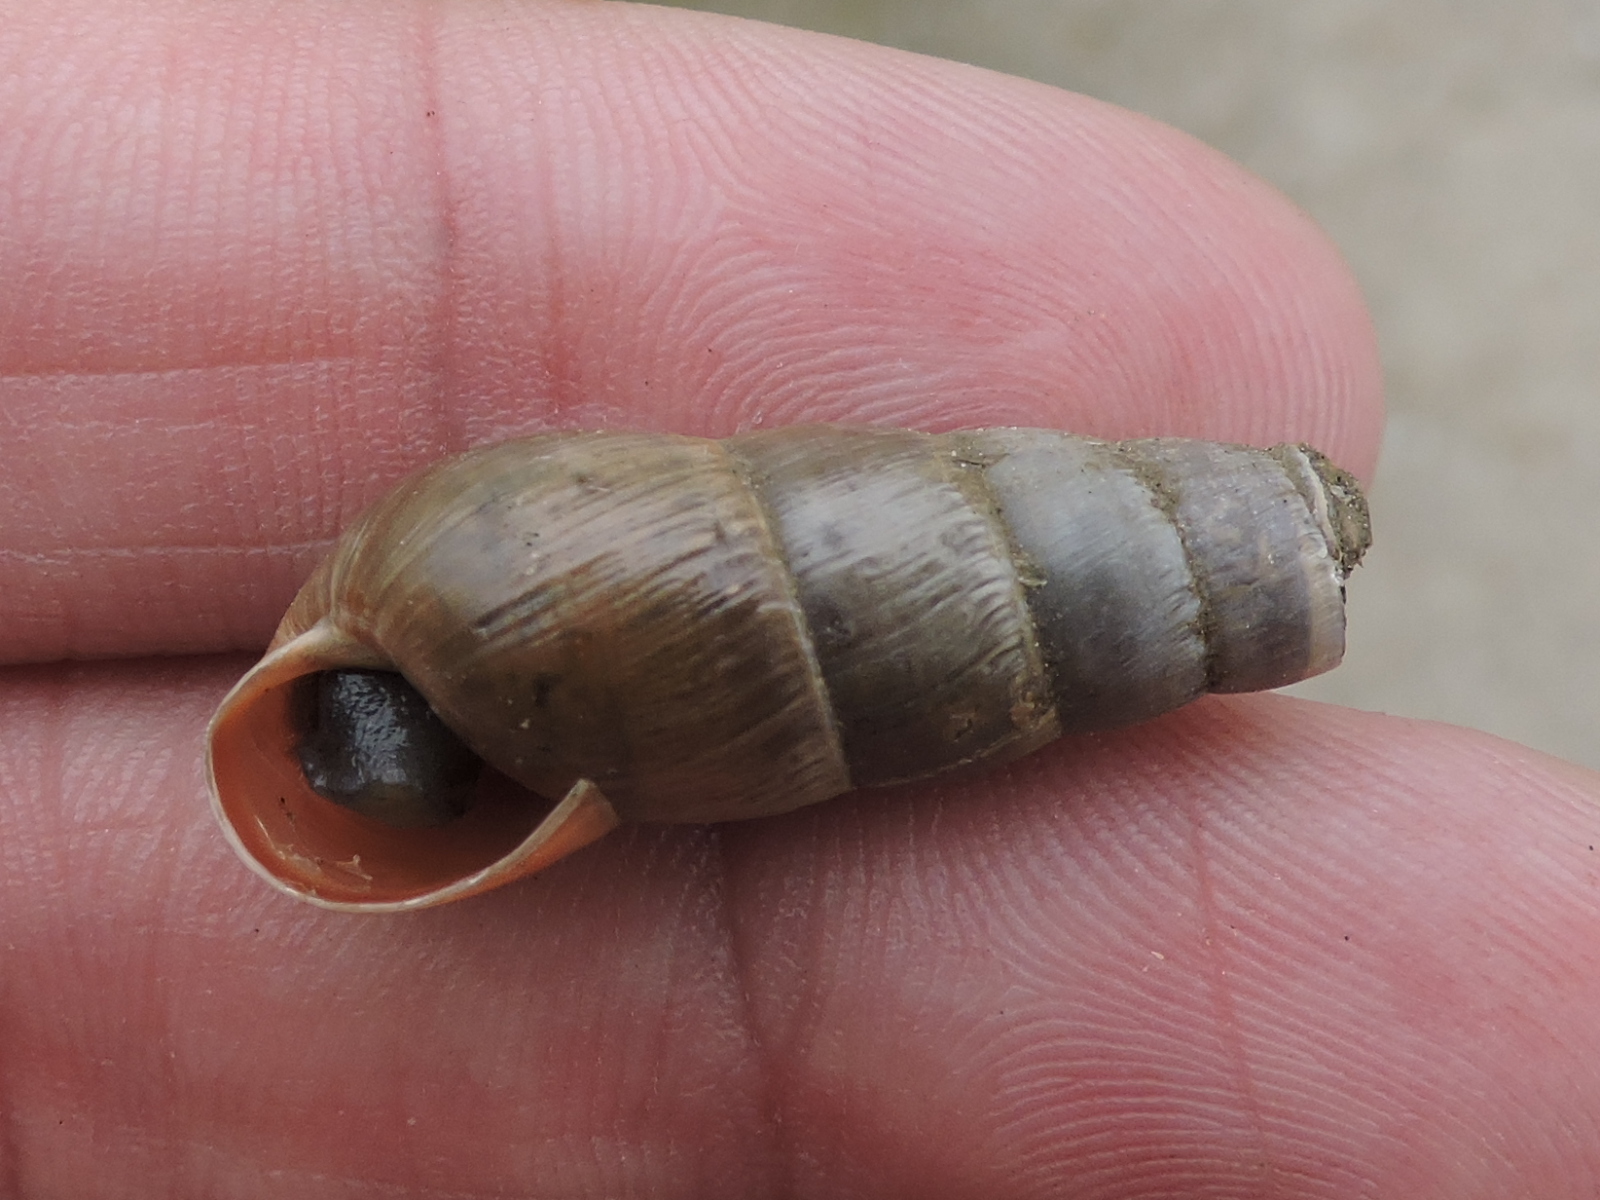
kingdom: Animalia
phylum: Mollusca
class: Gastropoda
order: Stylommatophora
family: Achatinidae
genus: Rumina
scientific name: Rumina decollata
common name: Decollate snail
